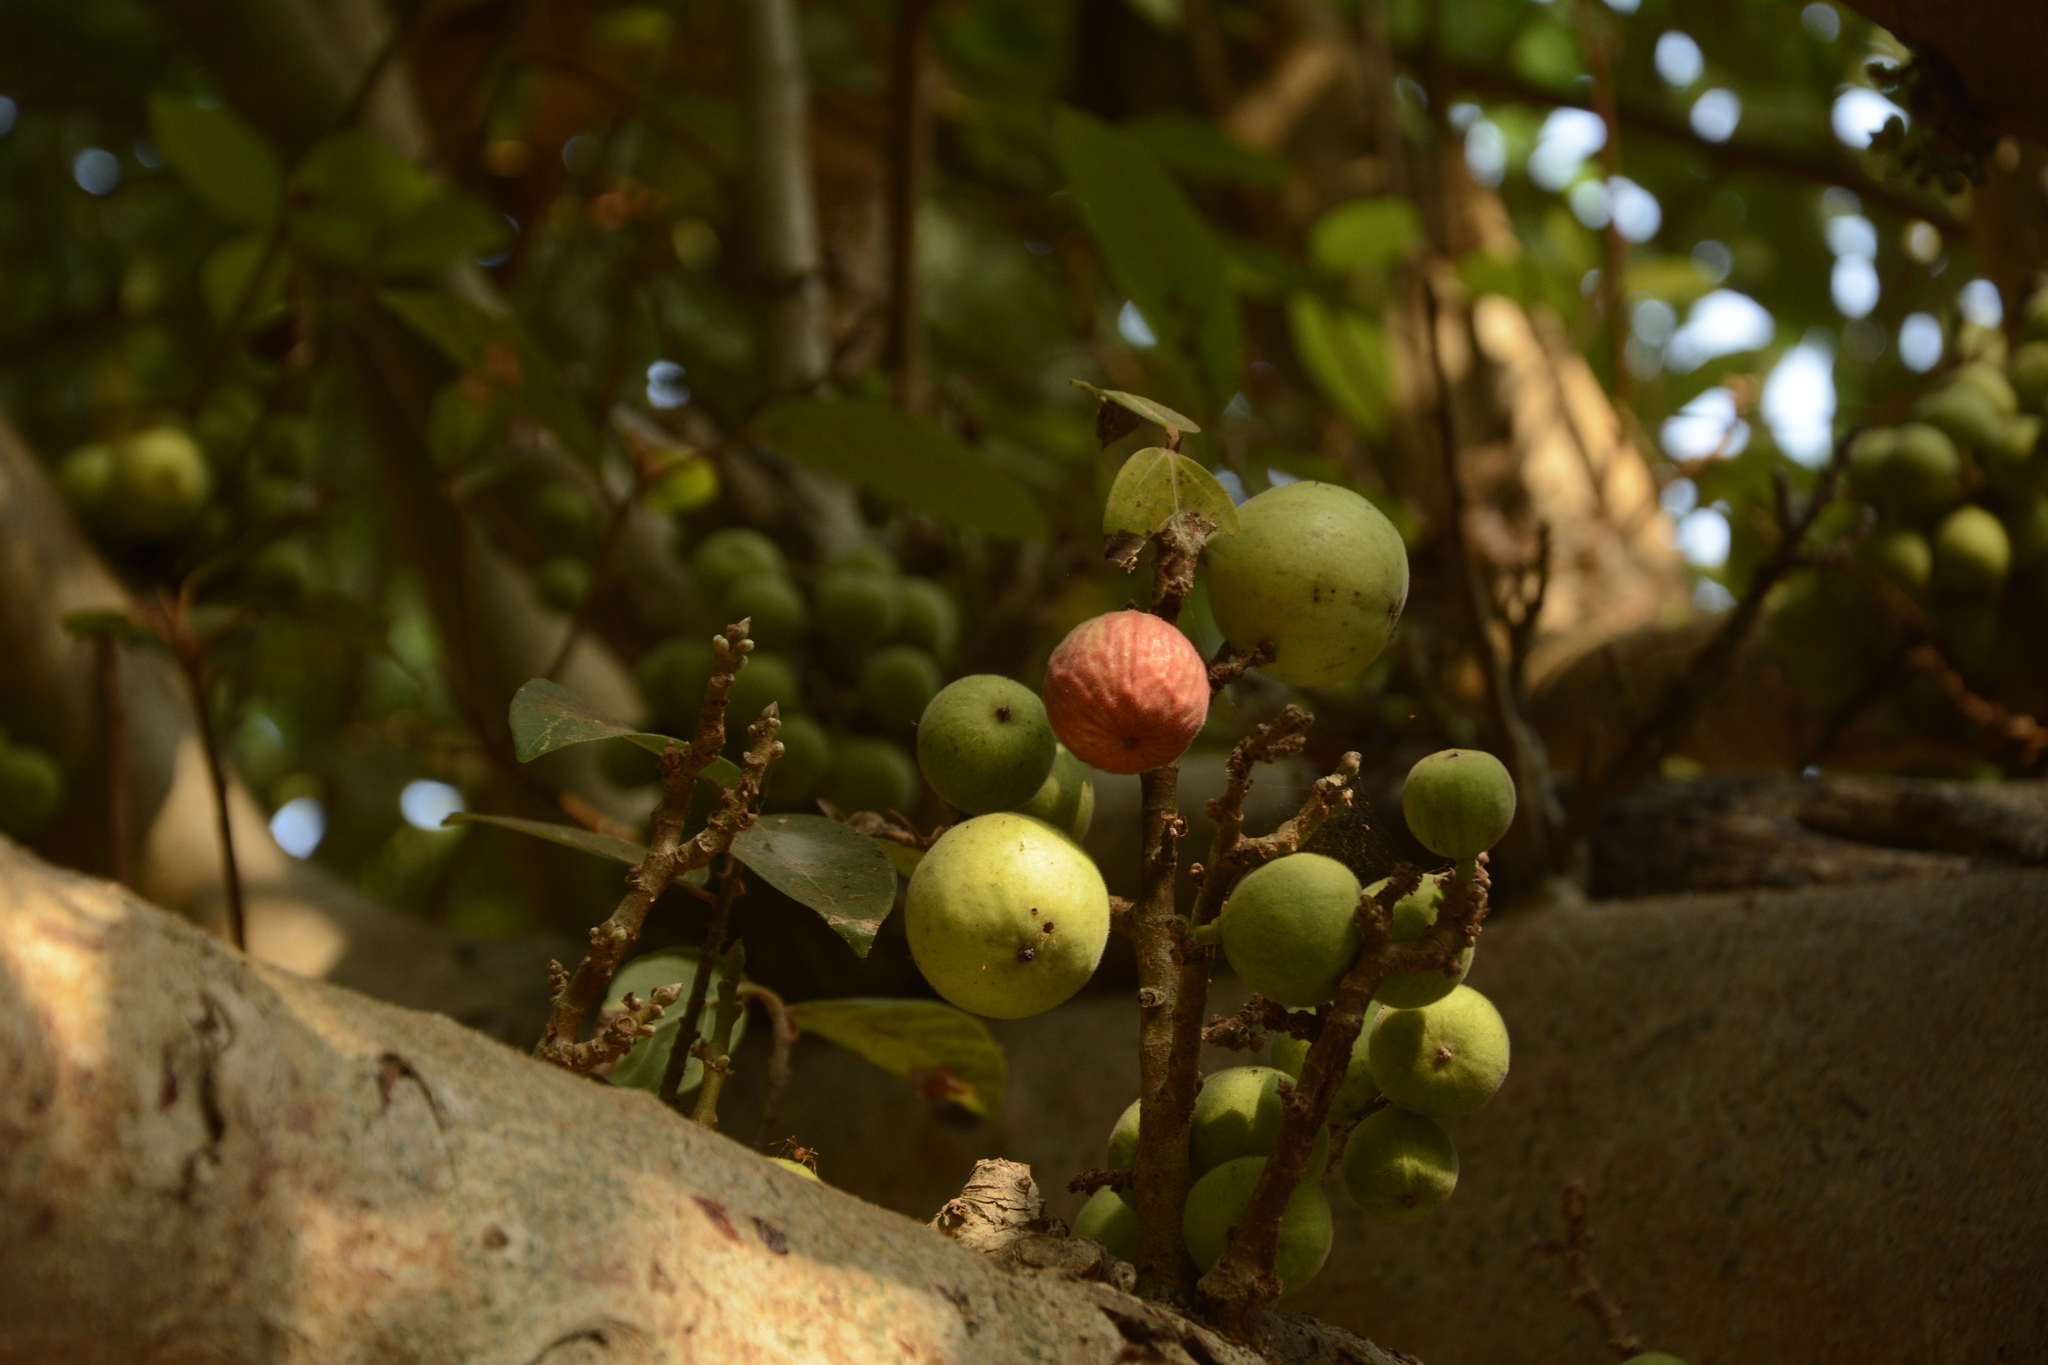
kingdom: Plantae
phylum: Tracheophyta
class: Magnoliopsida
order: Rosales
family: Moraceae
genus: Ficus
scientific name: Ficus racemosa
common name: Cluster fig
